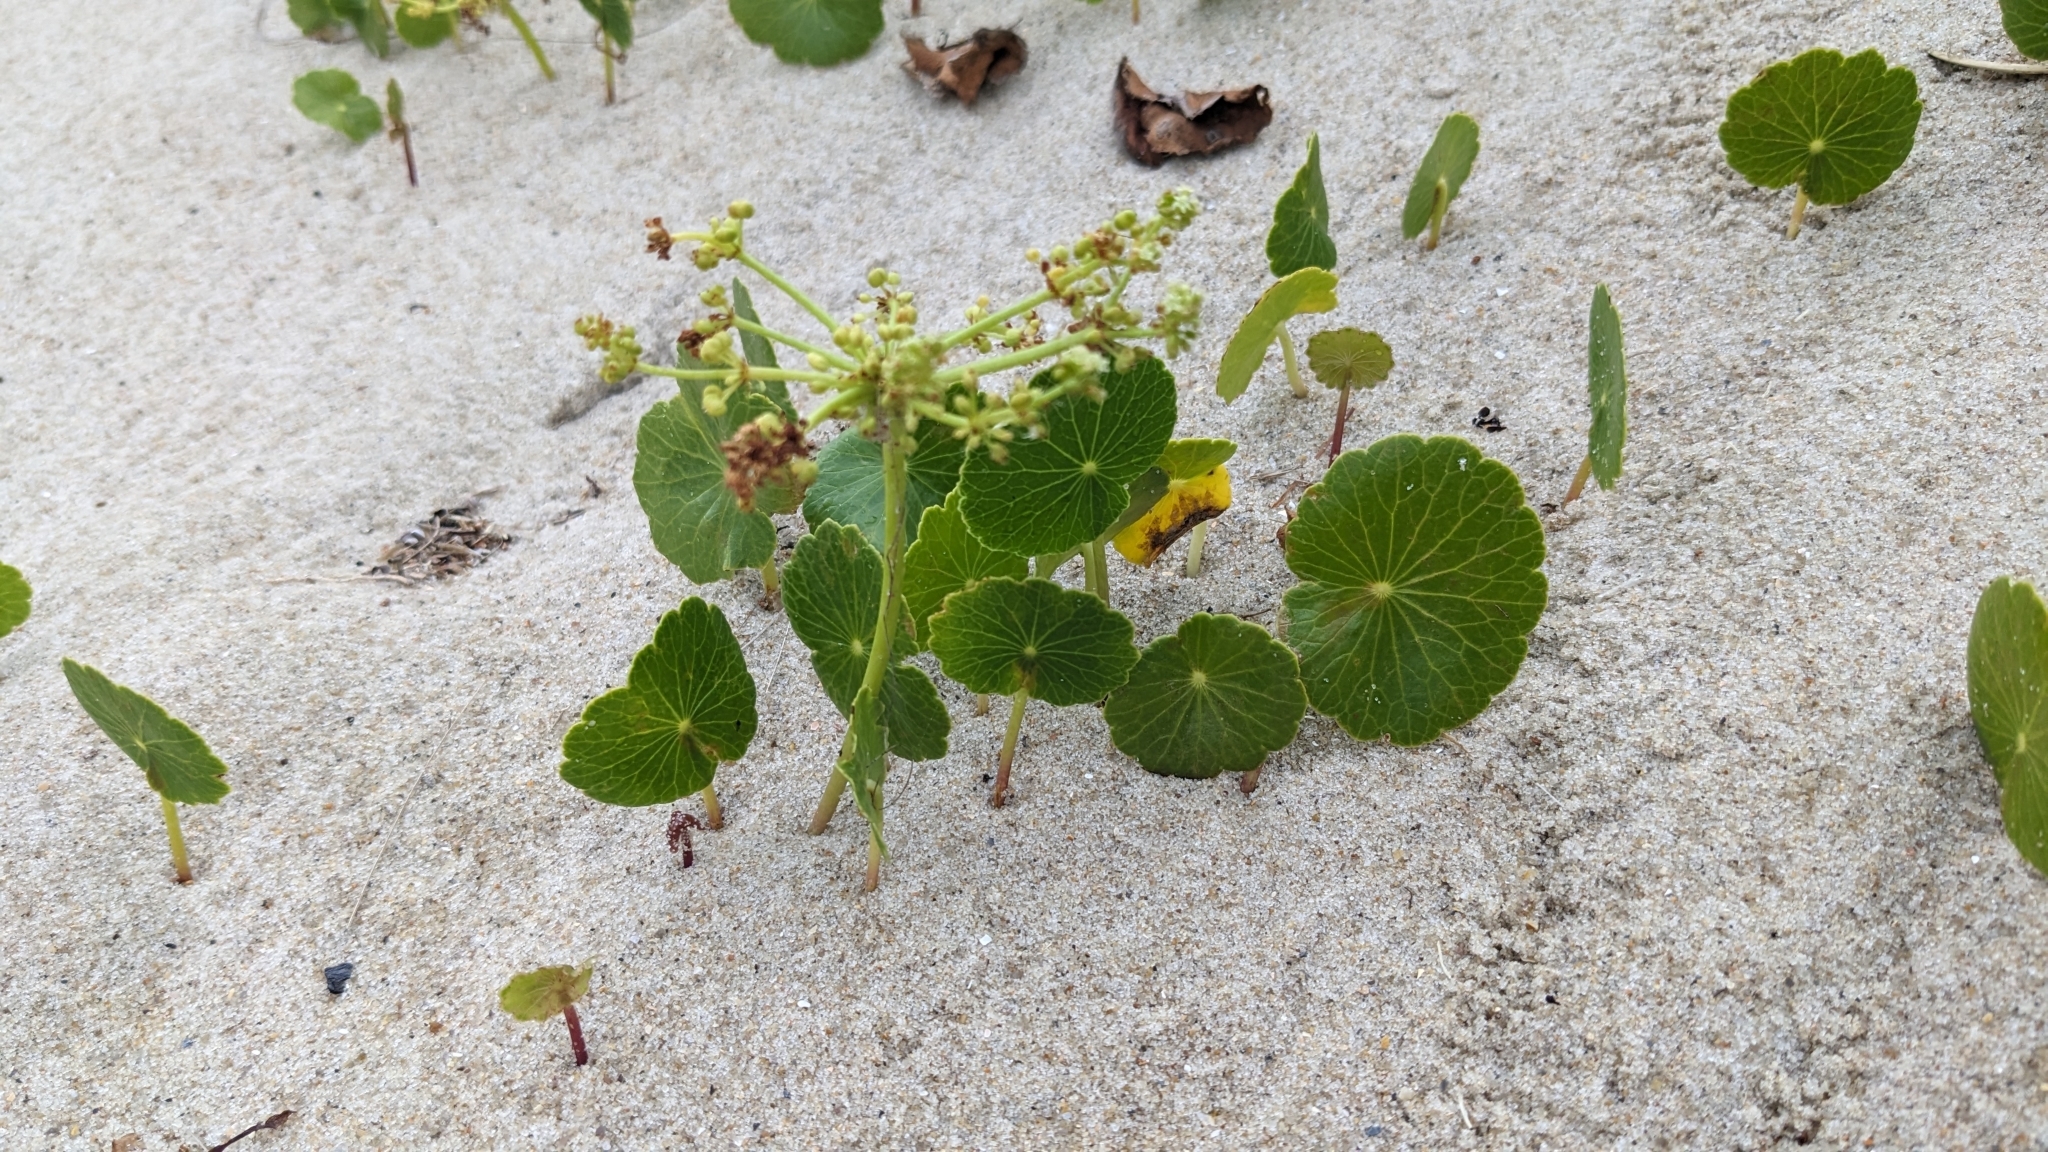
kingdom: Plantae
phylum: Tracheophyta
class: Magnoliopsida
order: Apiales
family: Araliaceae
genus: Hydrocotyle
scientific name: Hydrocotyle bonariensis
